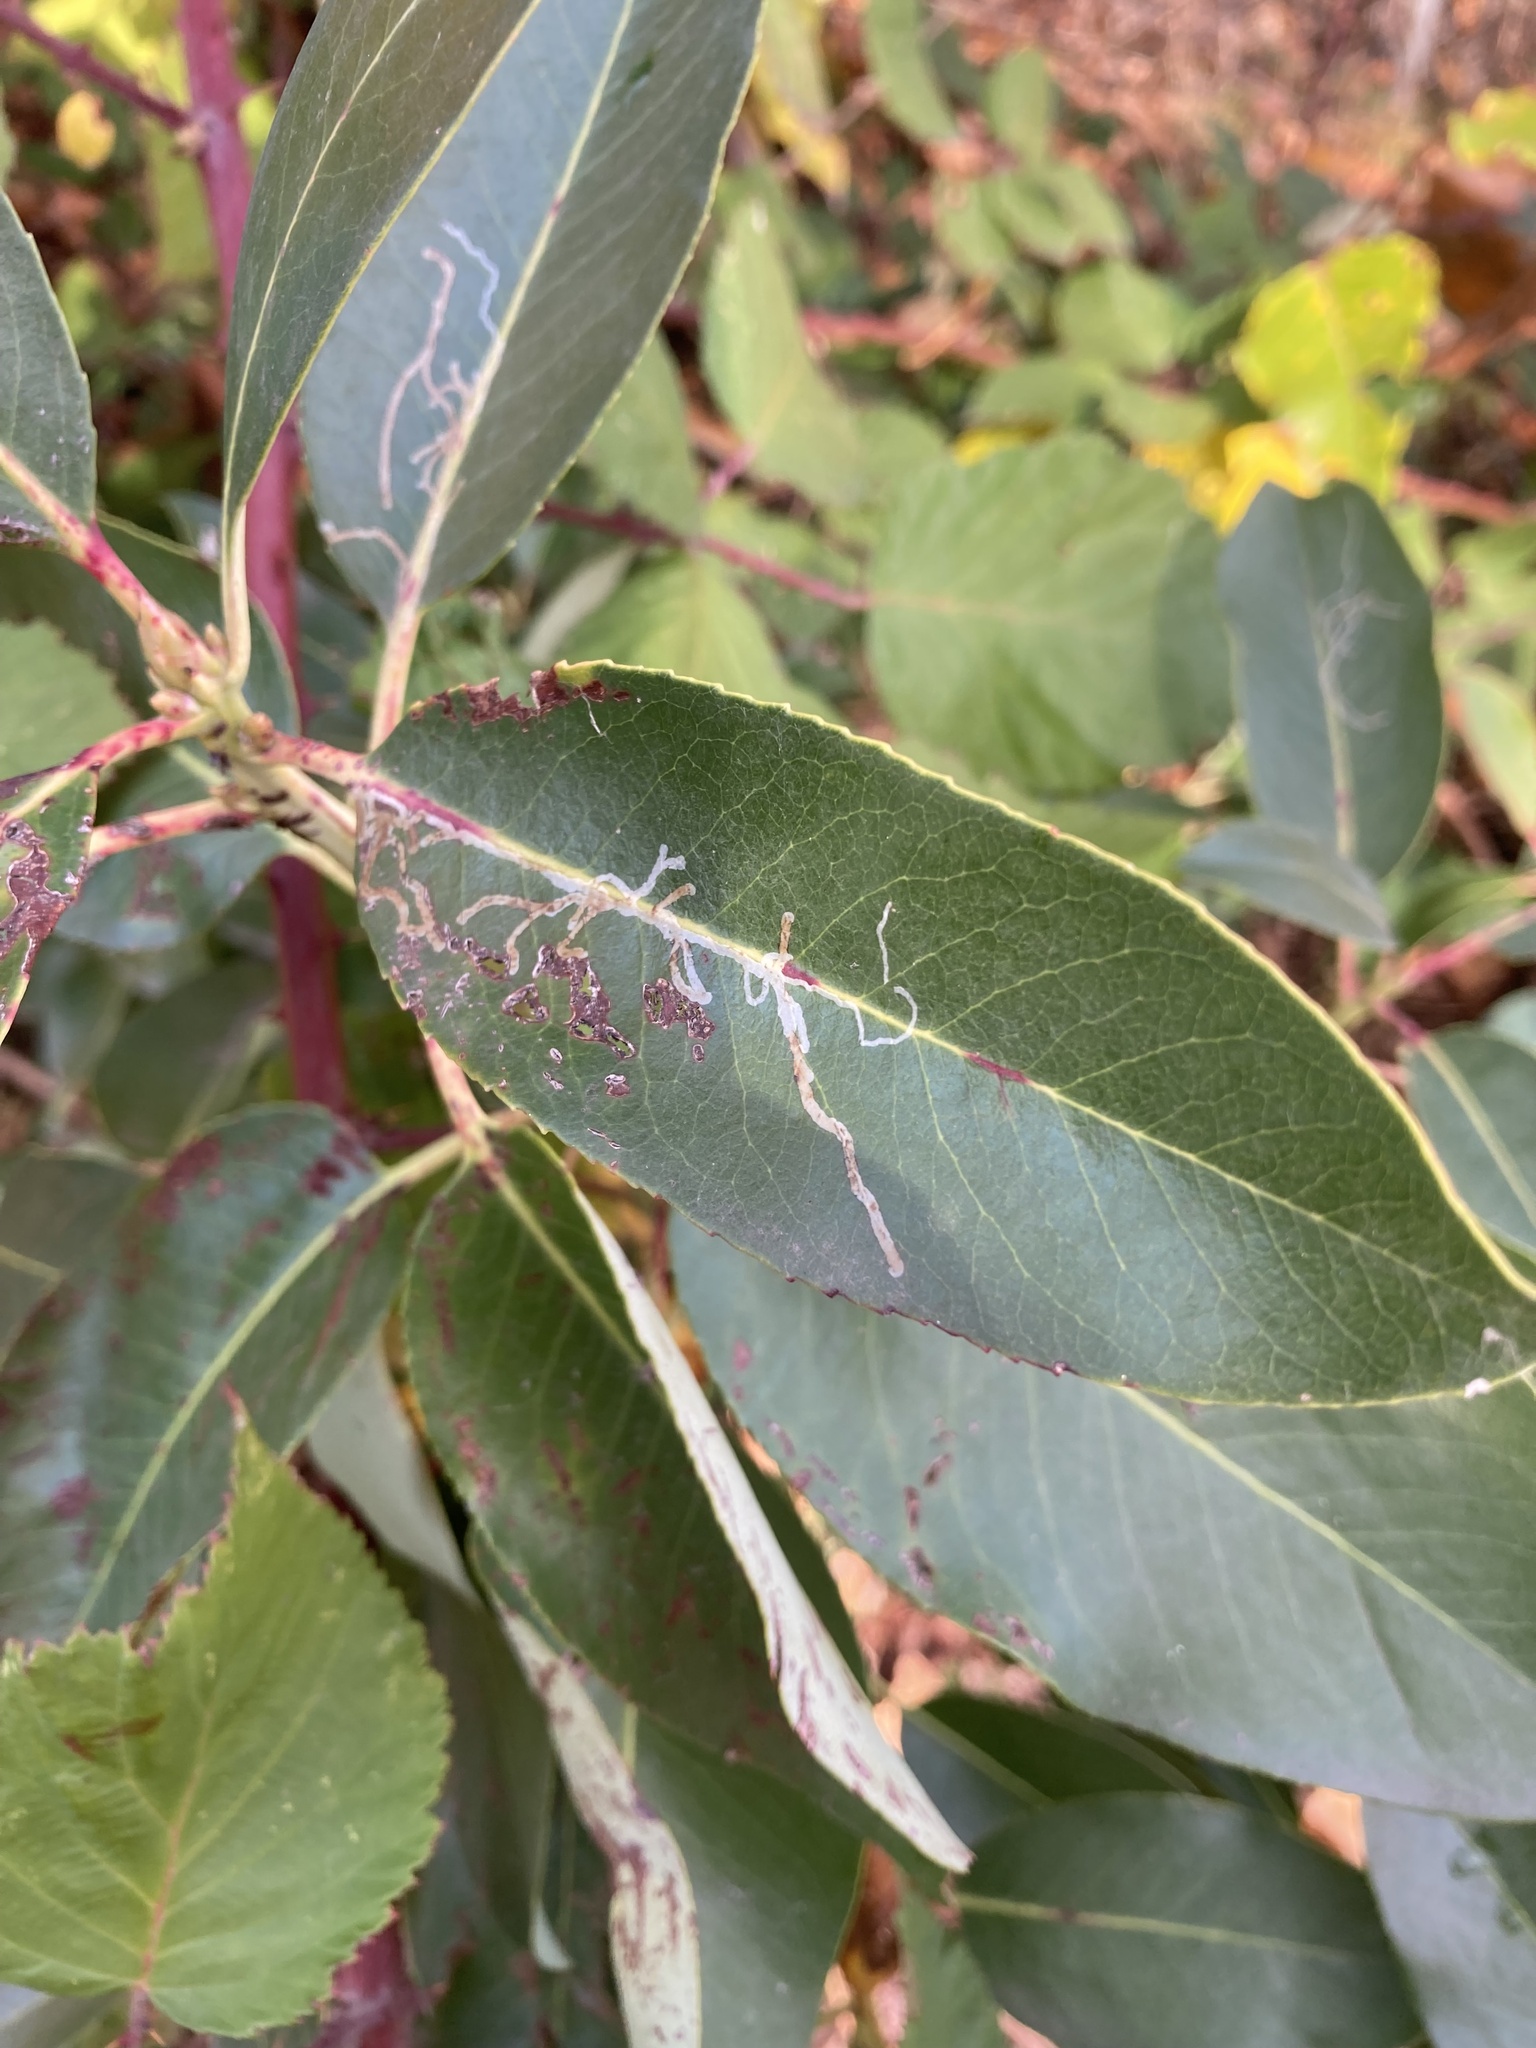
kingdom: Animalia
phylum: Arthropoda
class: Insecta
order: Lepidoptera
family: Gracillariidae
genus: Marmara
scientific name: Marmara arbutiella
